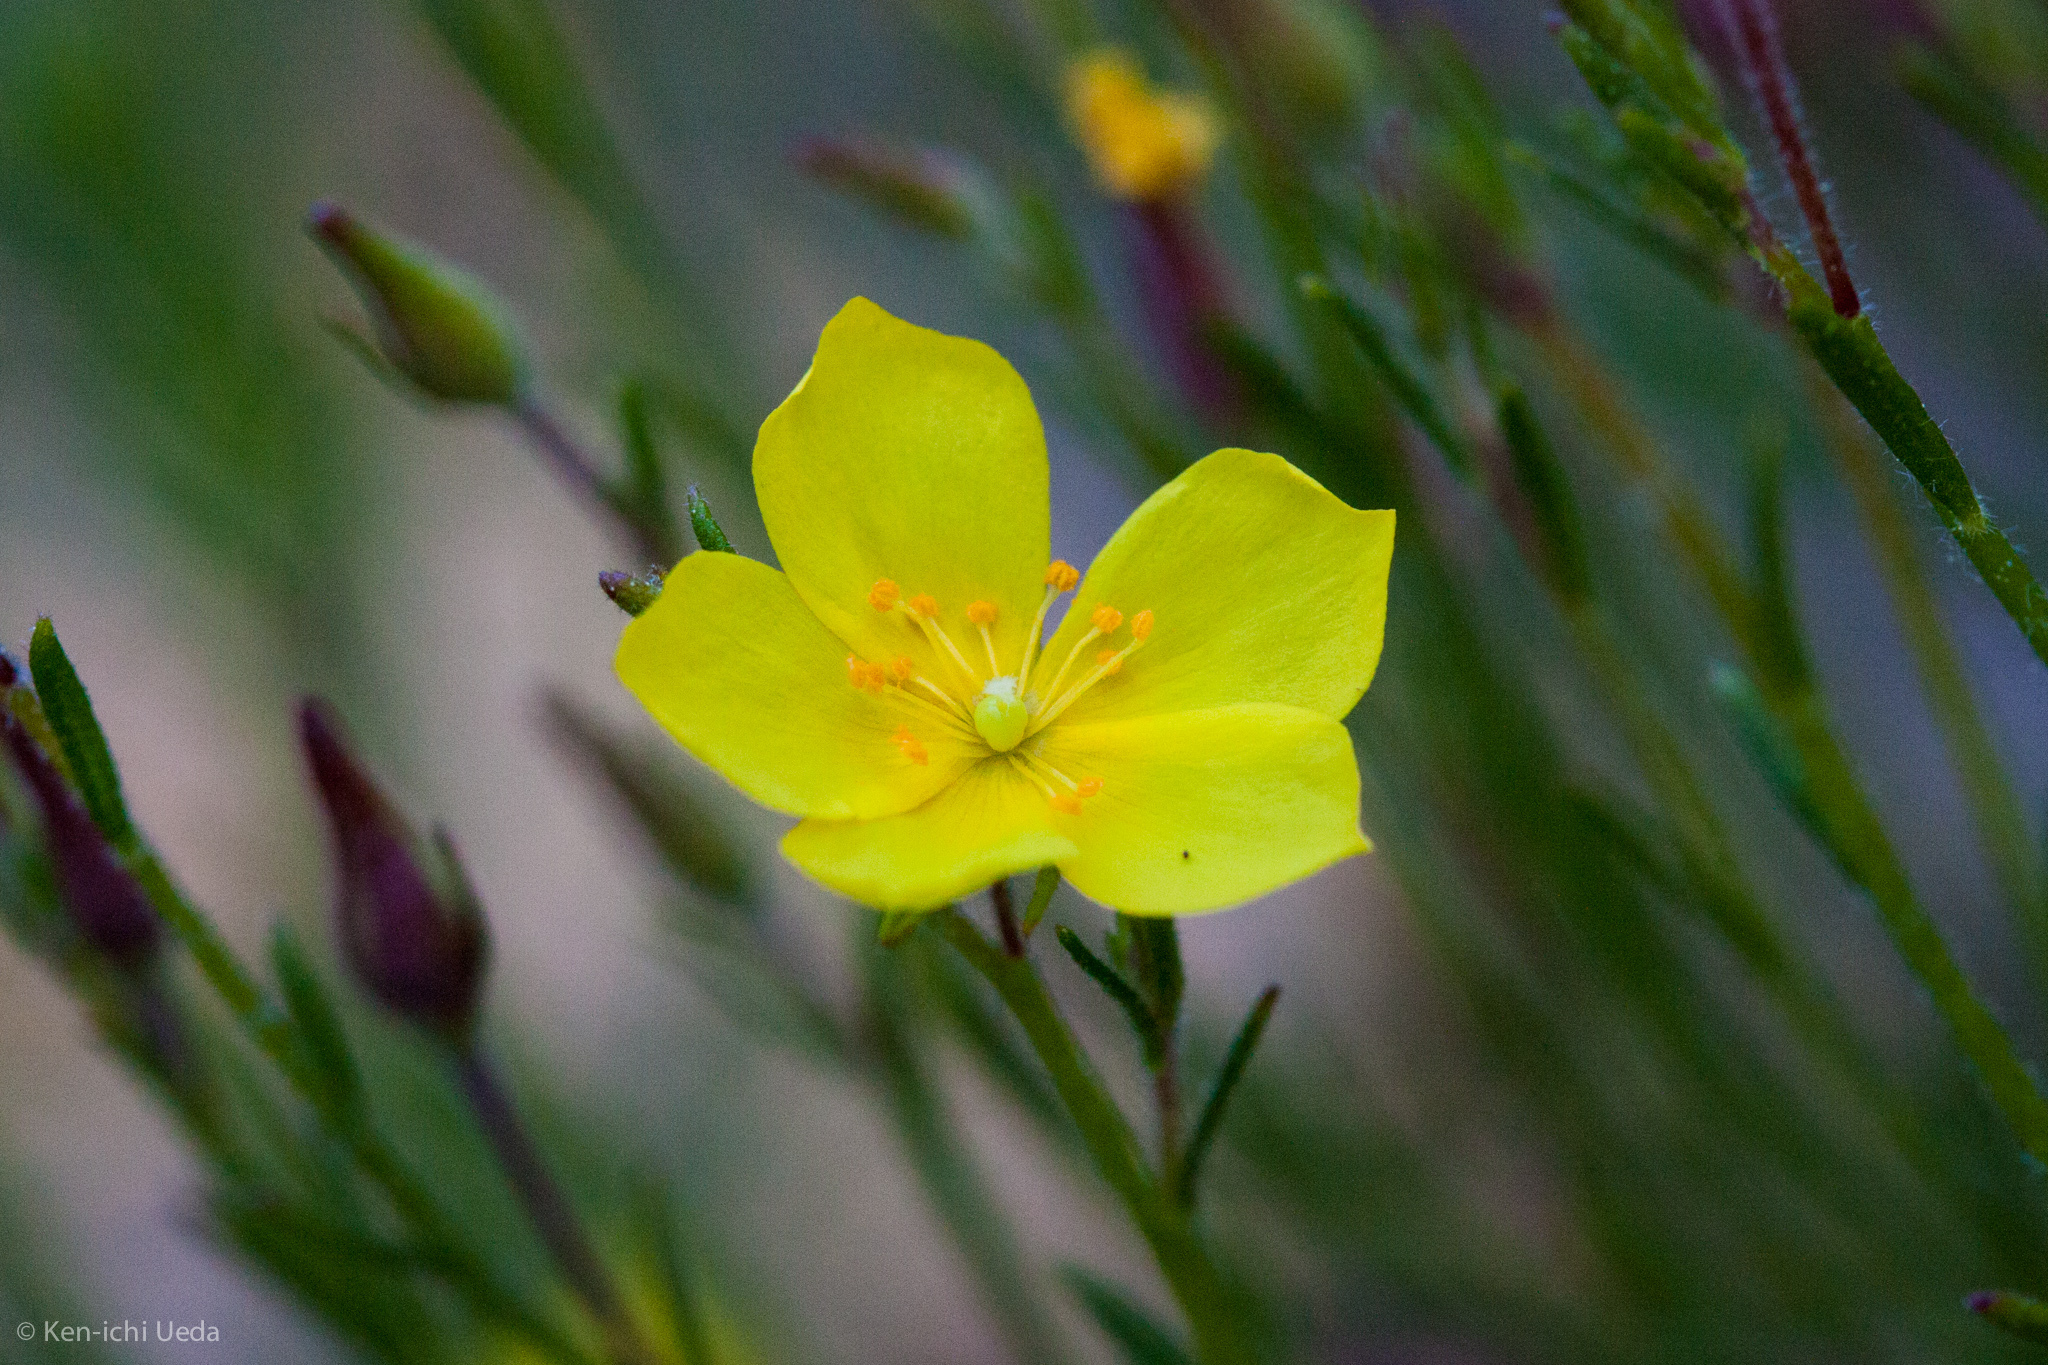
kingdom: Plantae
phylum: Tracheophyta
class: Magnoliopsida
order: Malvales
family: Cistaceae
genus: Crocanthemum
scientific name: Crocanthemum scoparium
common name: Broom-rose
